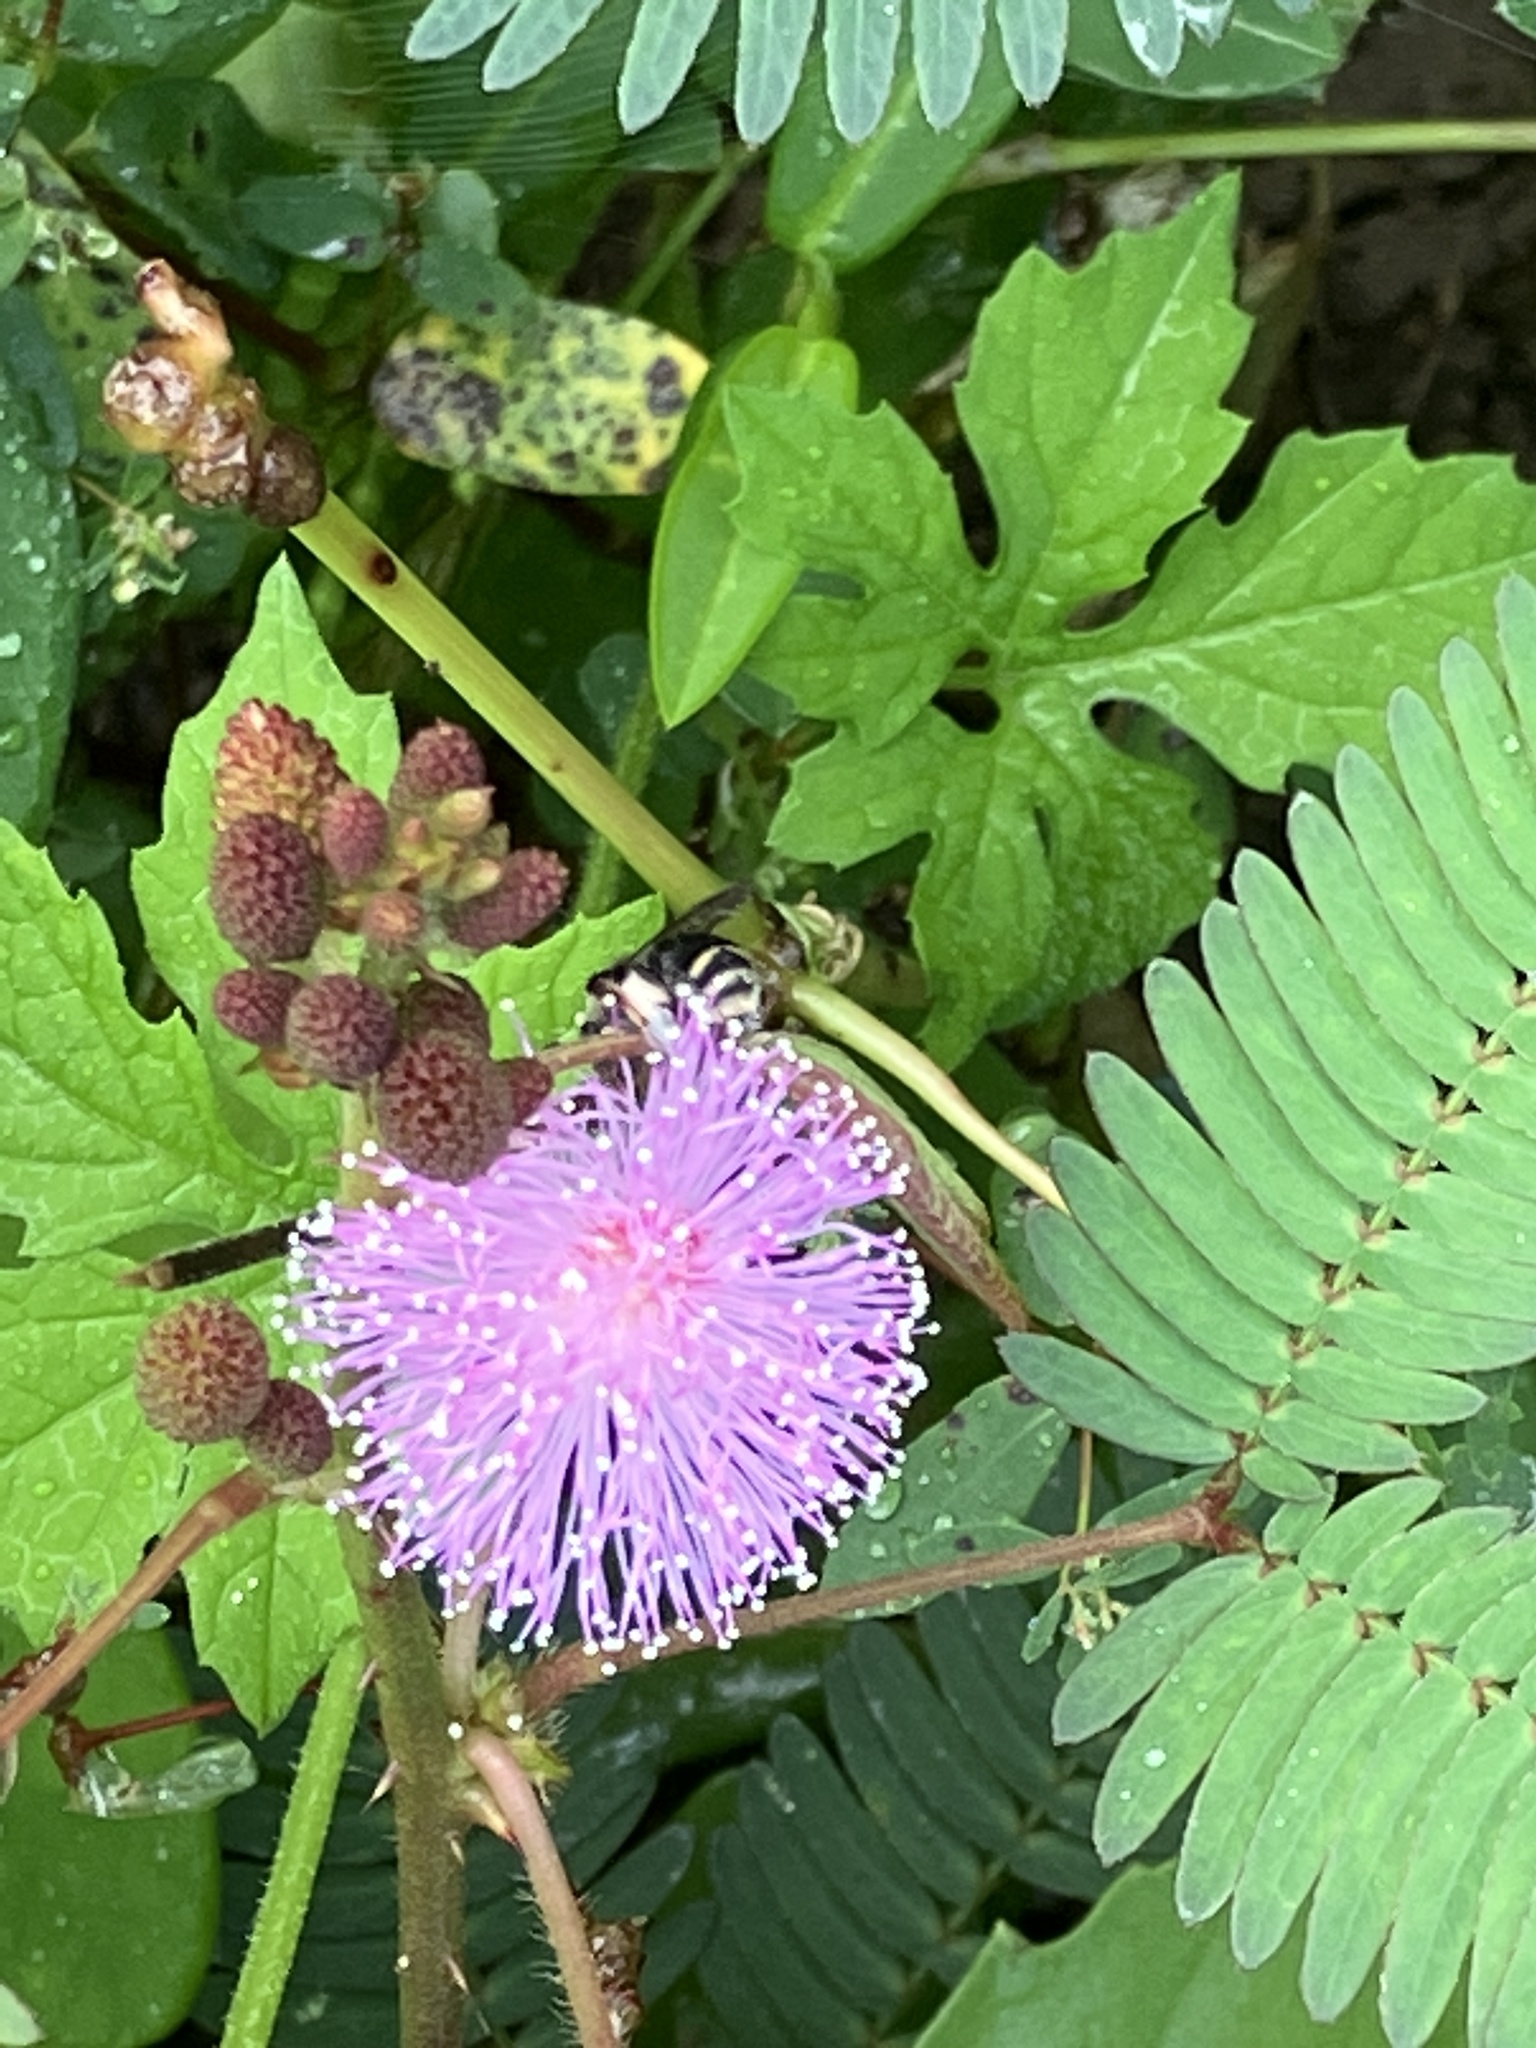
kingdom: Plantae
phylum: Tracheophyta
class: Magnoliopsida
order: Fabales
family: Fabaceae
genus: Mimosa
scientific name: Mimosa pudica
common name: Sensitive plant
